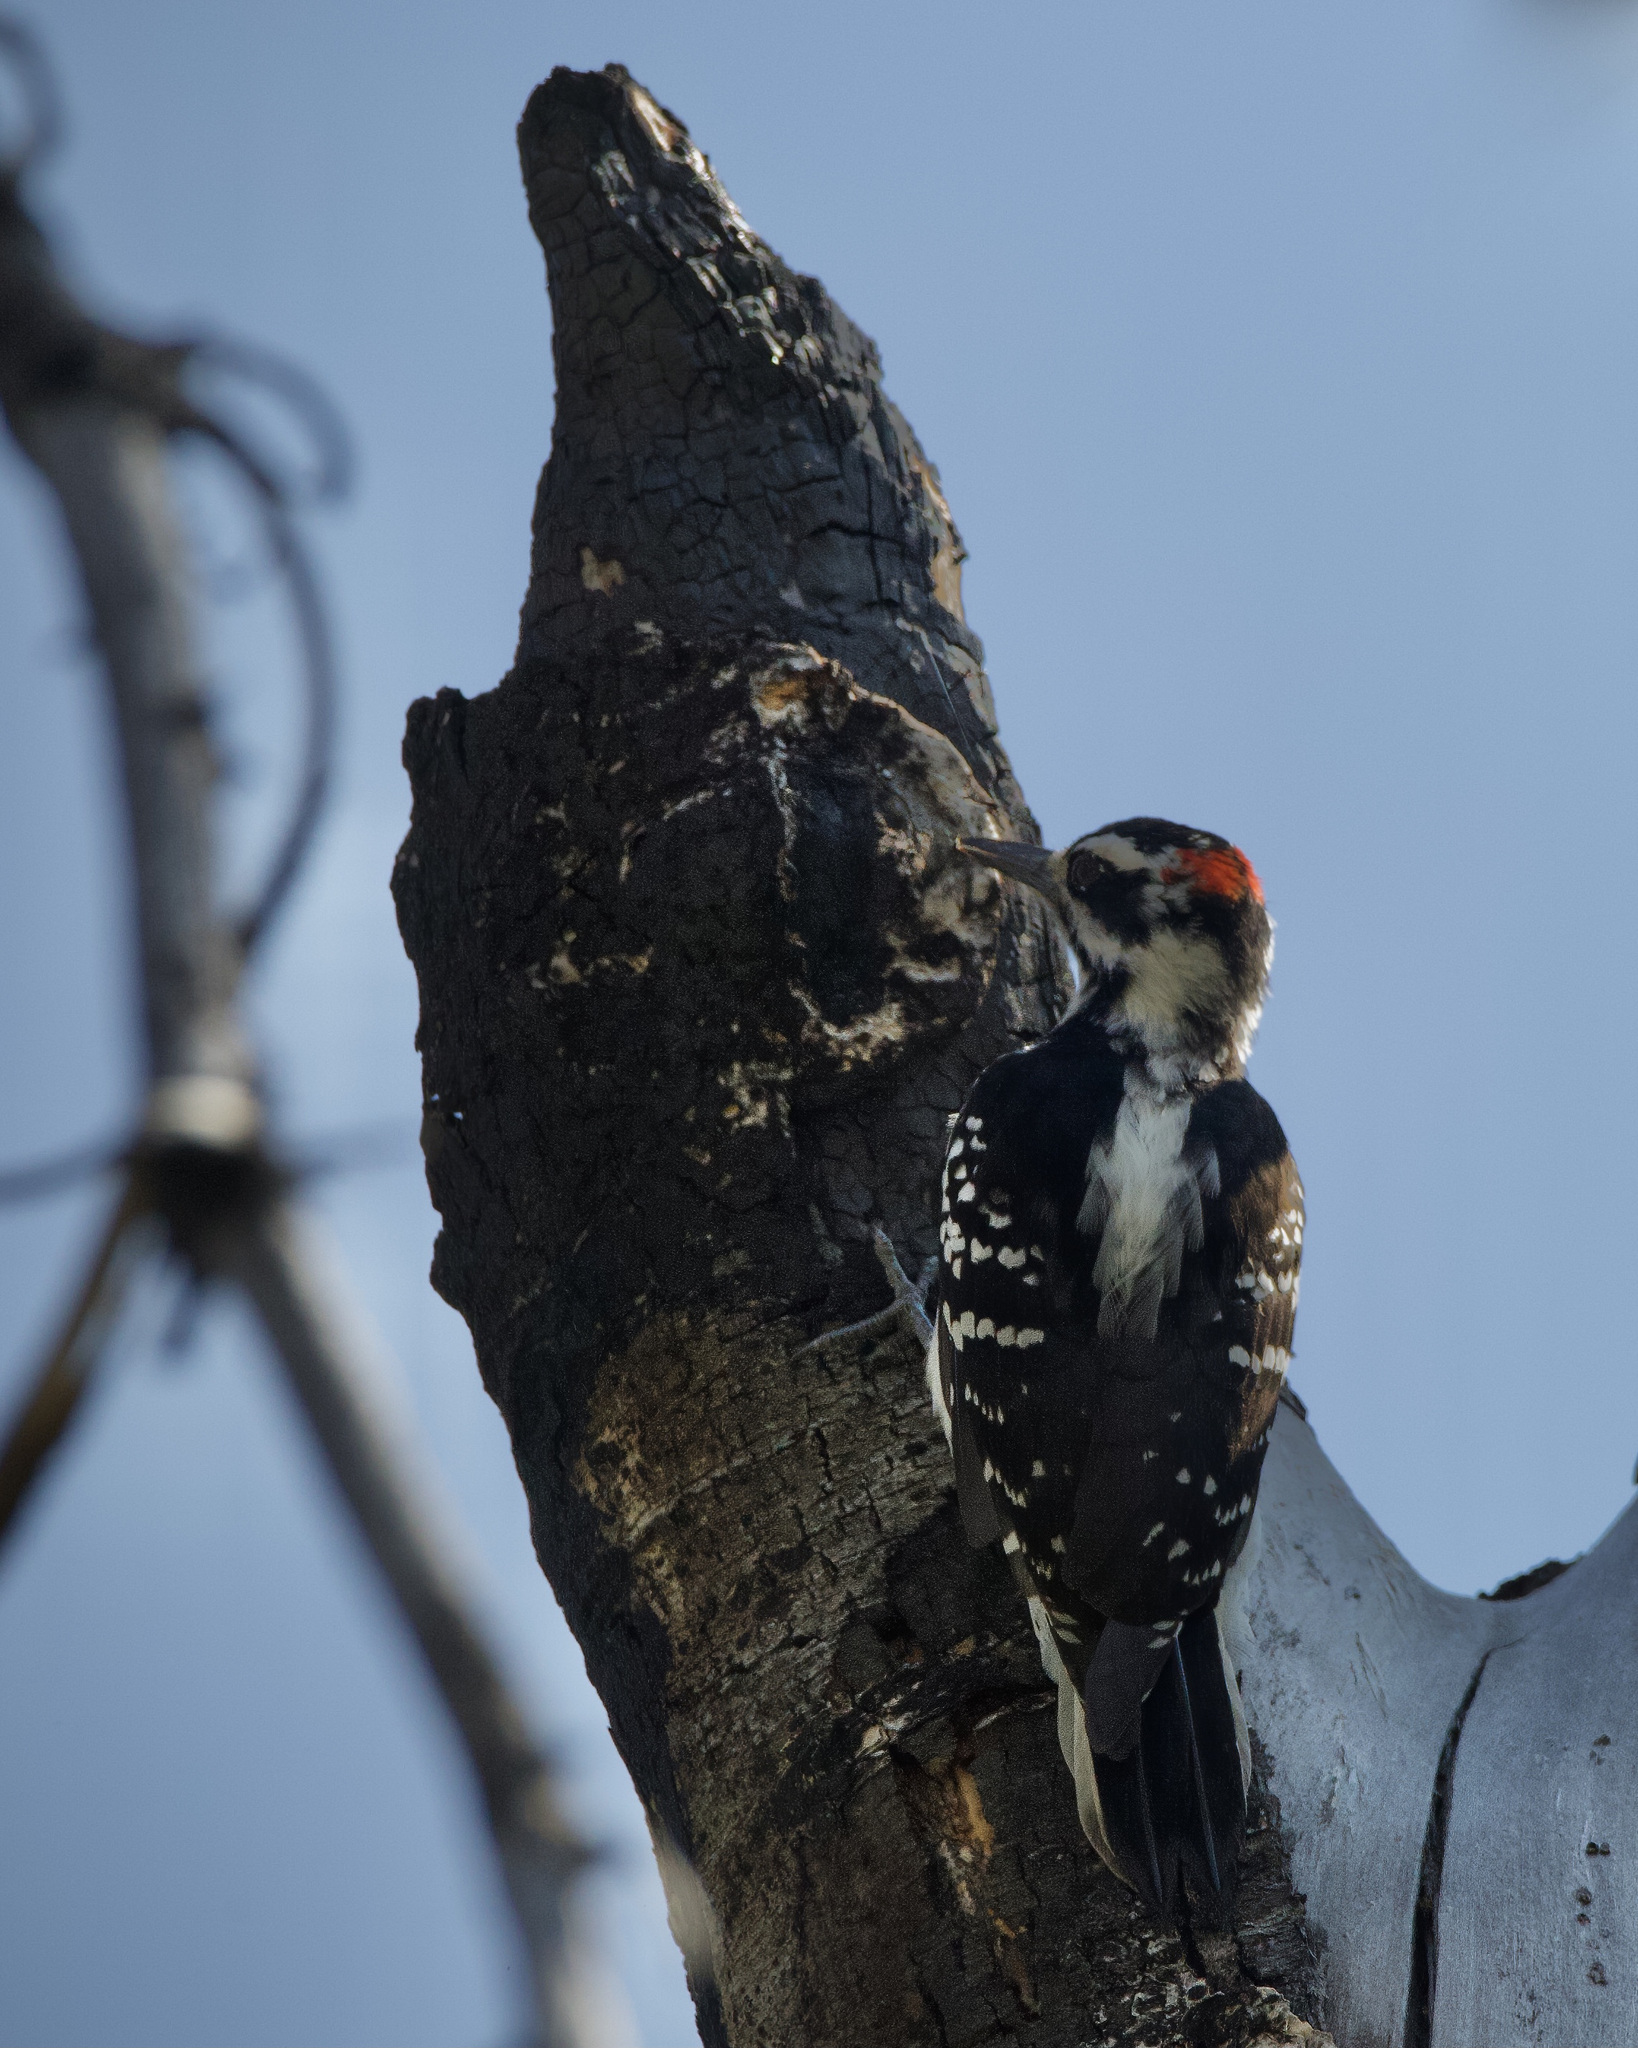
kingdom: Animalia
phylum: Chordata
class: Aves
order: Piciformes
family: Picidae
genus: Leuconotopicus
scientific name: Leuconotopicus villosus
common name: Hairy woodpecker
